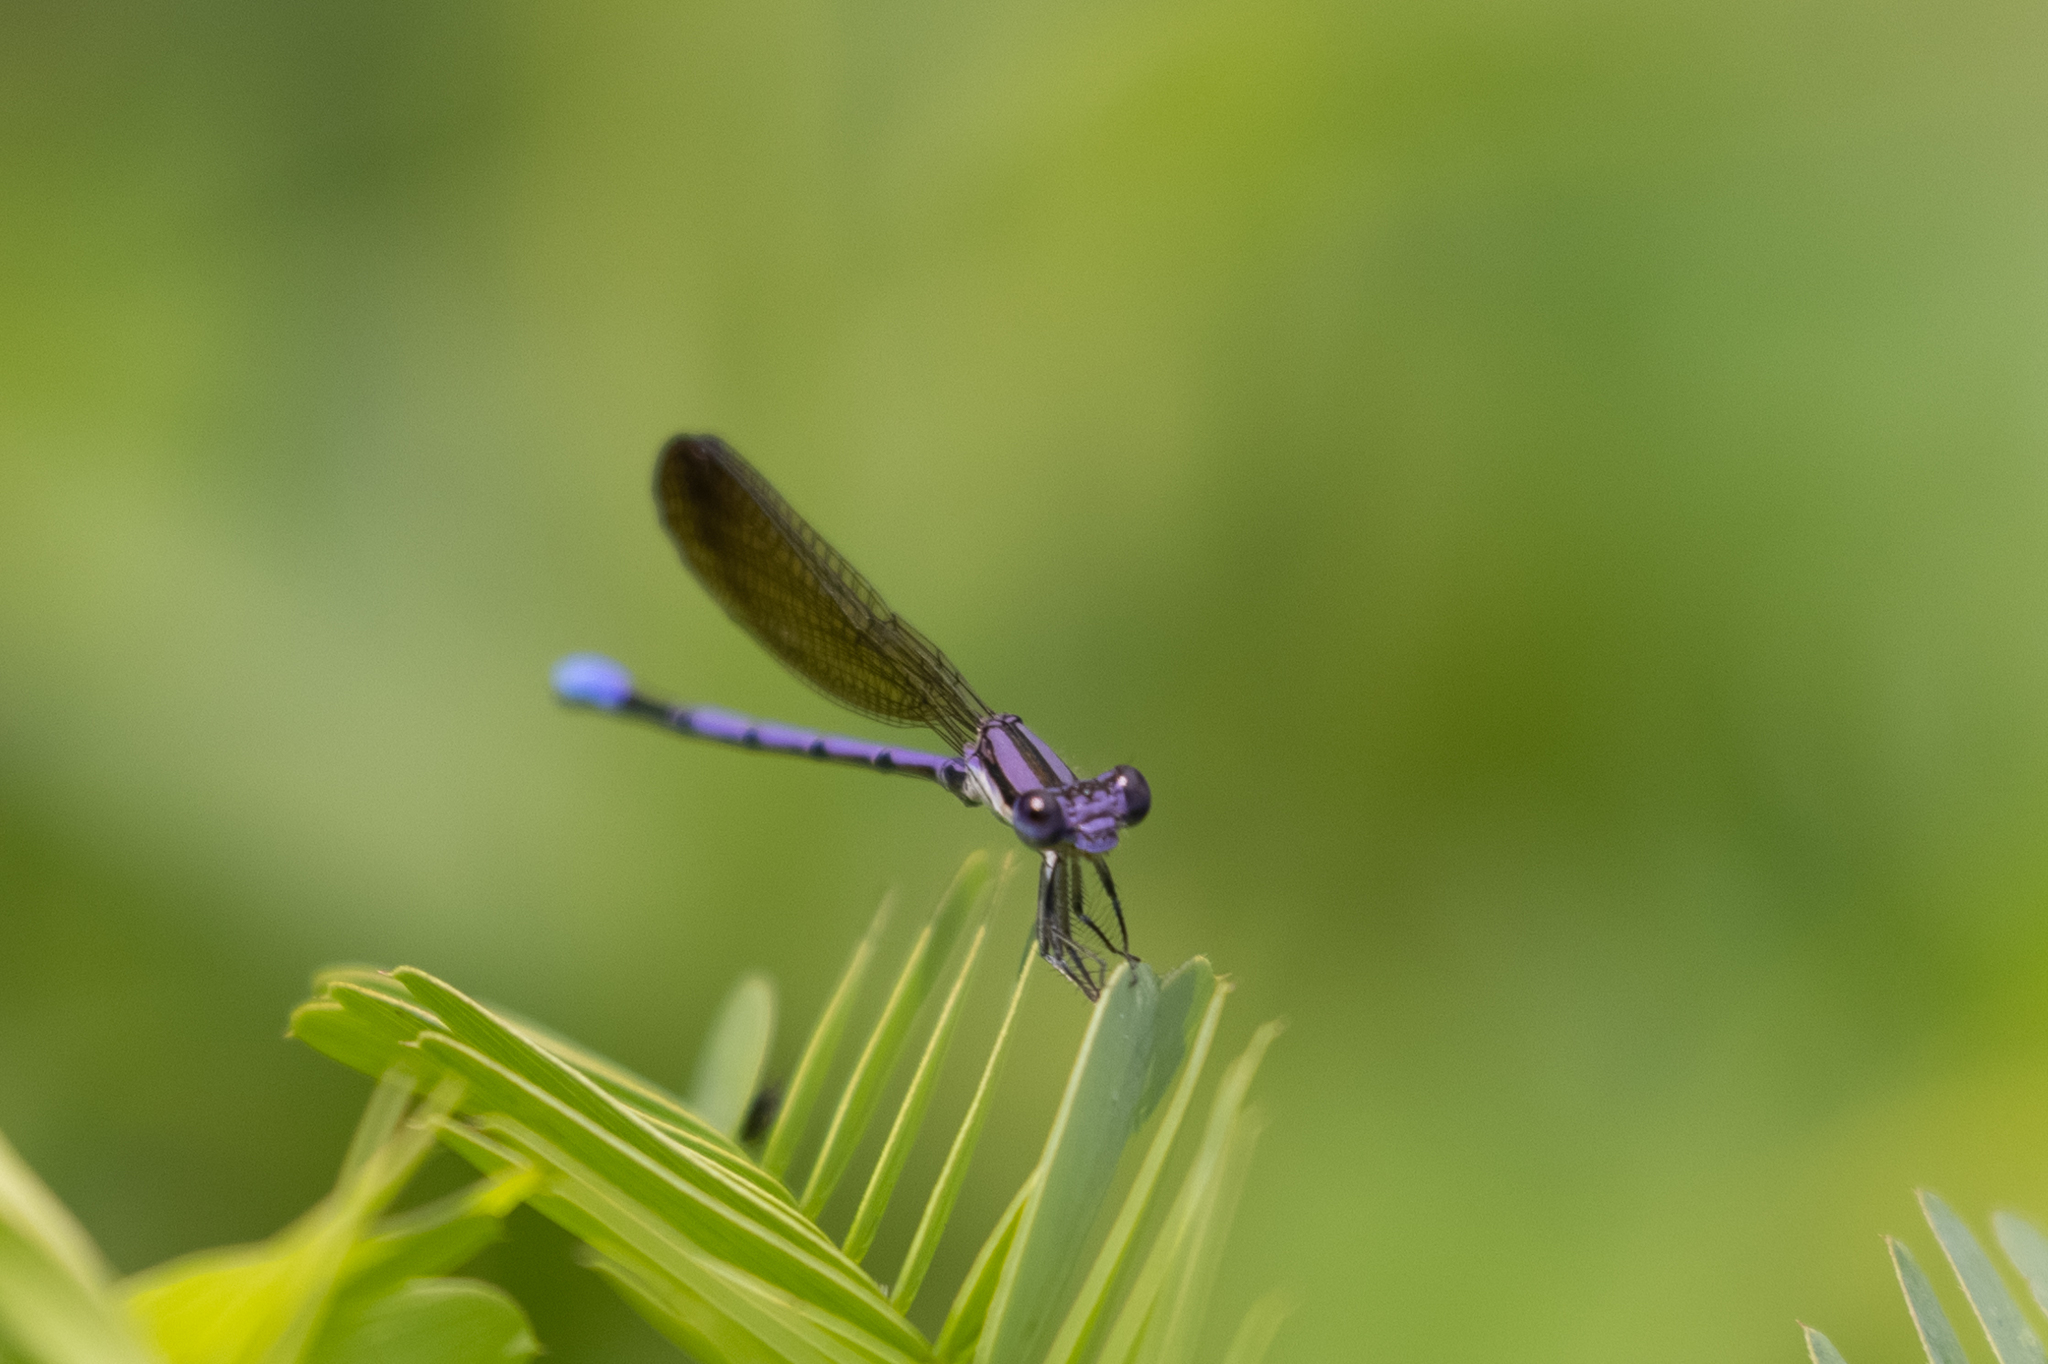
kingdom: Animalia
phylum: Arthropoda
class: Insecta
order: Odonata
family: Coenagrionidae
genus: Argia
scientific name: Argia fumipennis
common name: Variable dancer
